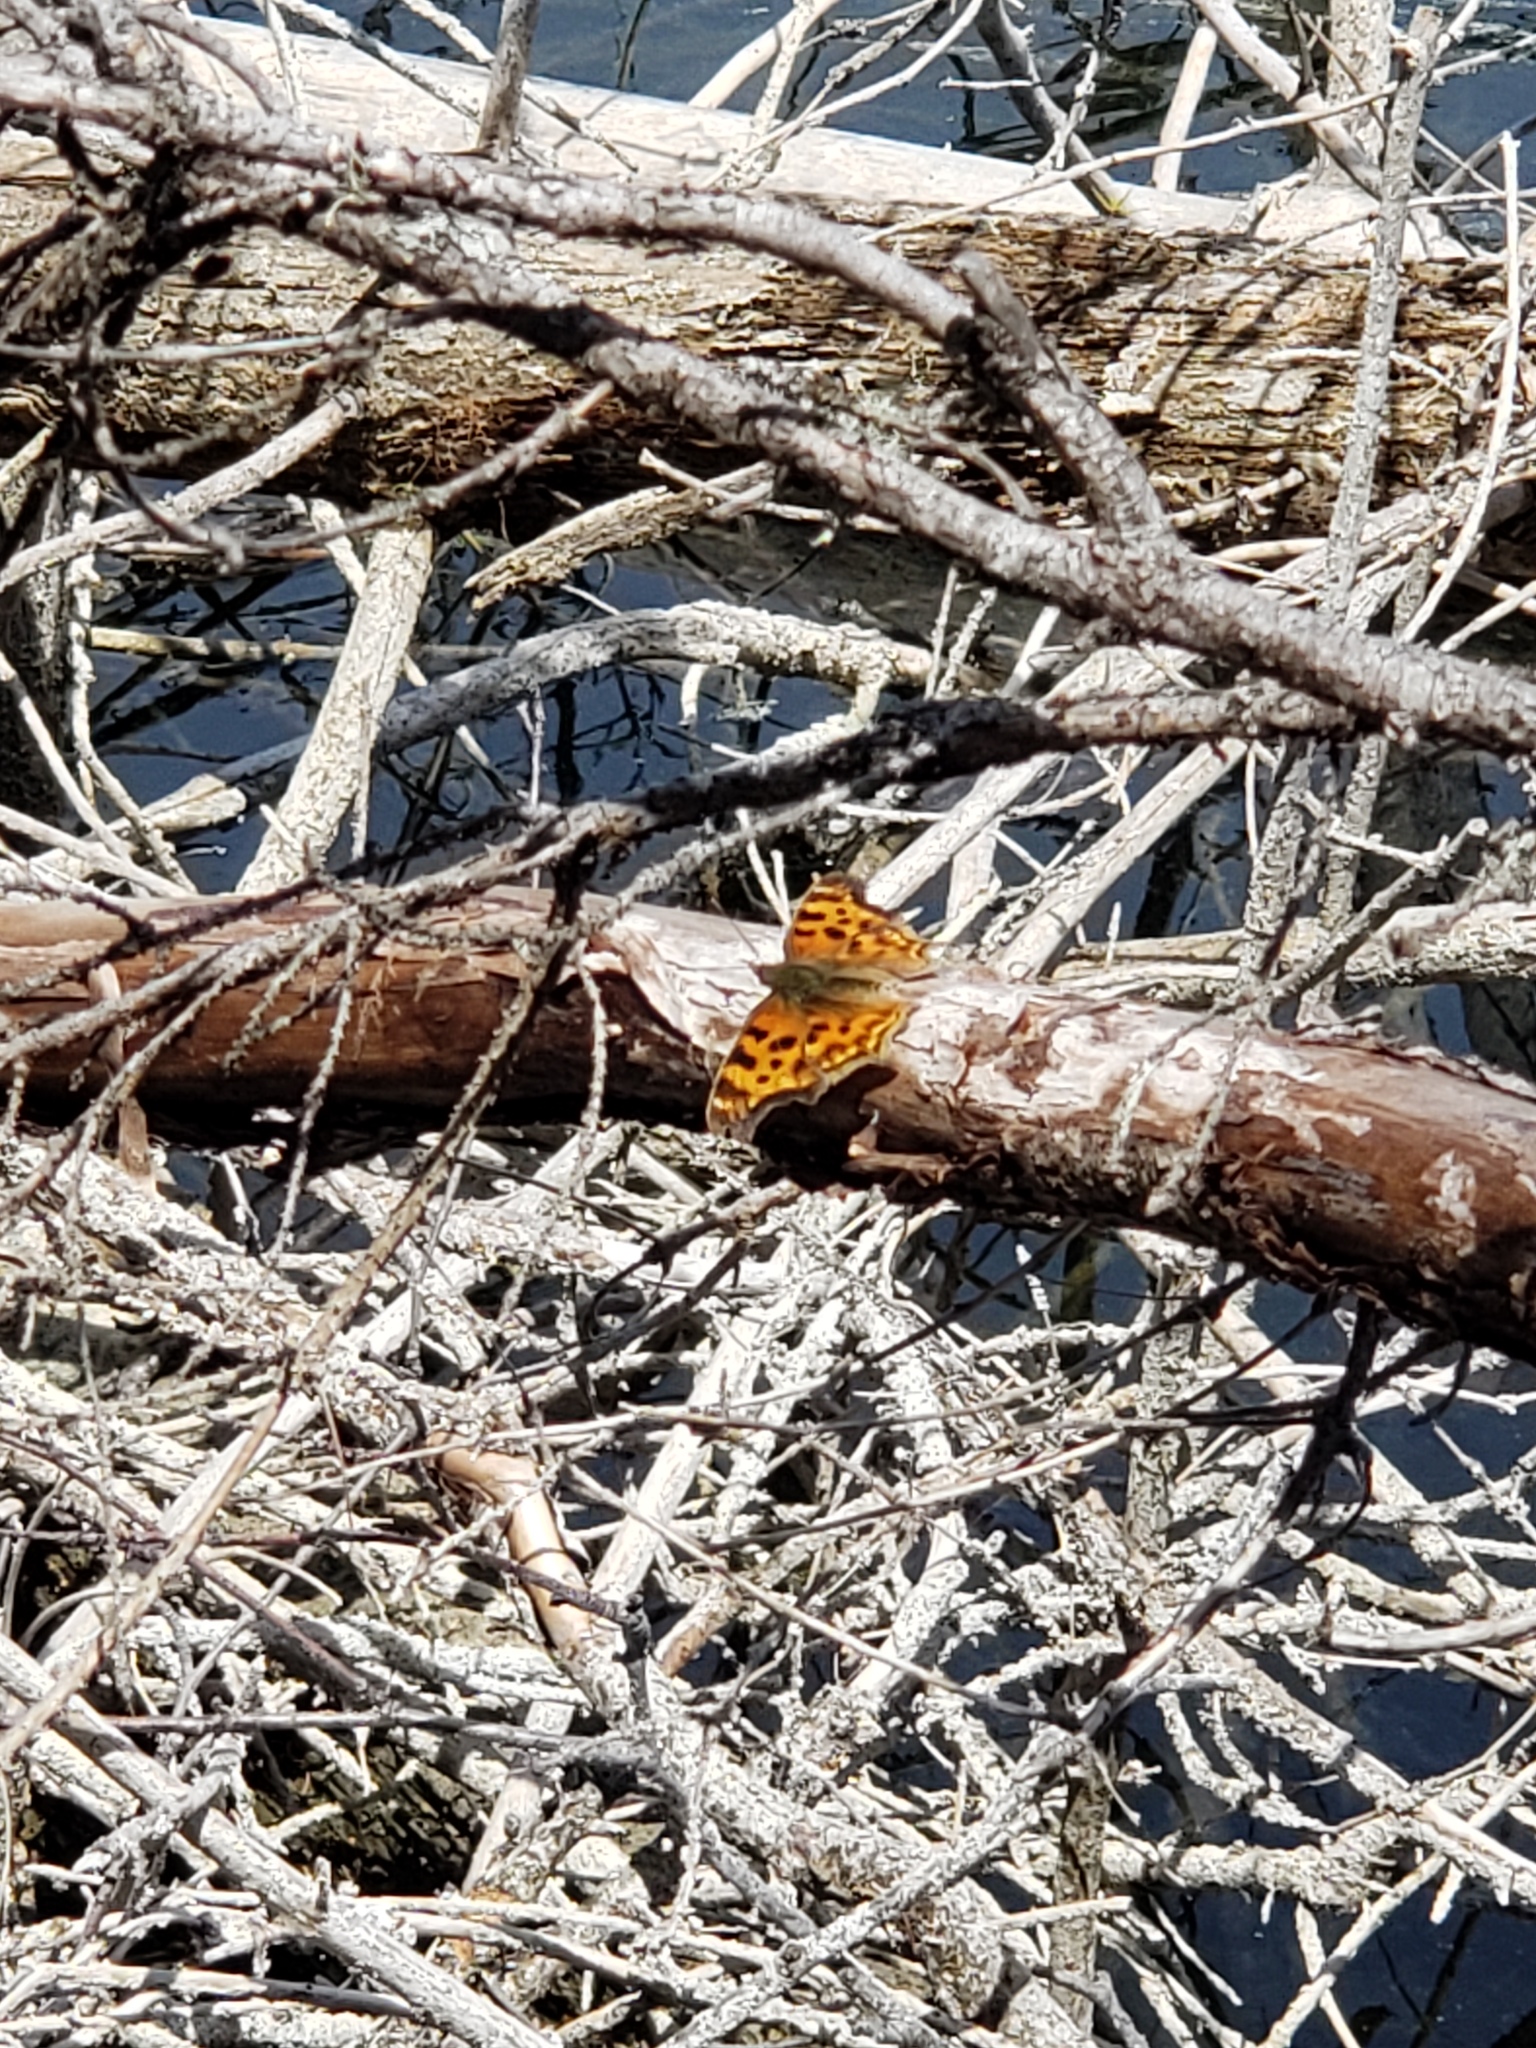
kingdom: Animalia
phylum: Arthropoda
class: Insecta
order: Lepidoptera
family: Nymphalidae
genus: Polygonia
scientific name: Polygonia satyrus
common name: Satyr angle wing
